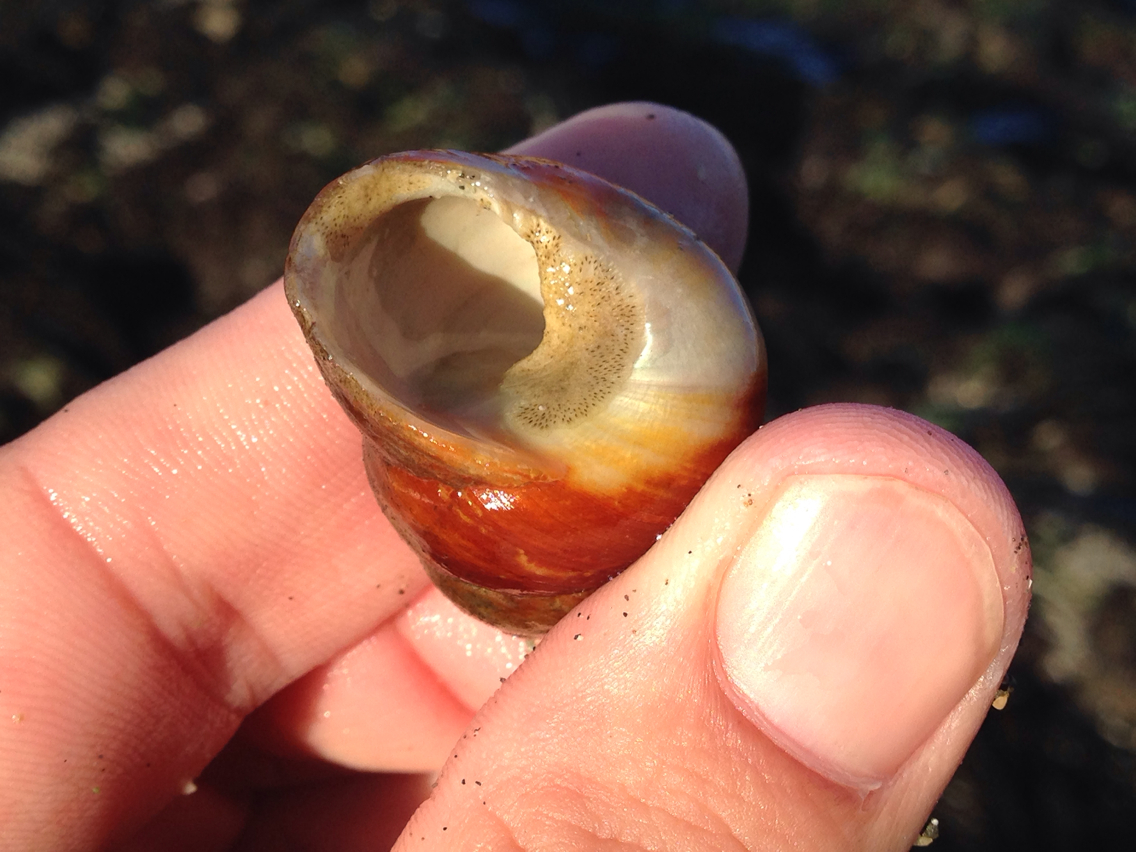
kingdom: Animalia
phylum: Mollusca
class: Gastropoda
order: Trochida
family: Tegulidae
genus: Tegula
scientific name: Tegula brunnea
